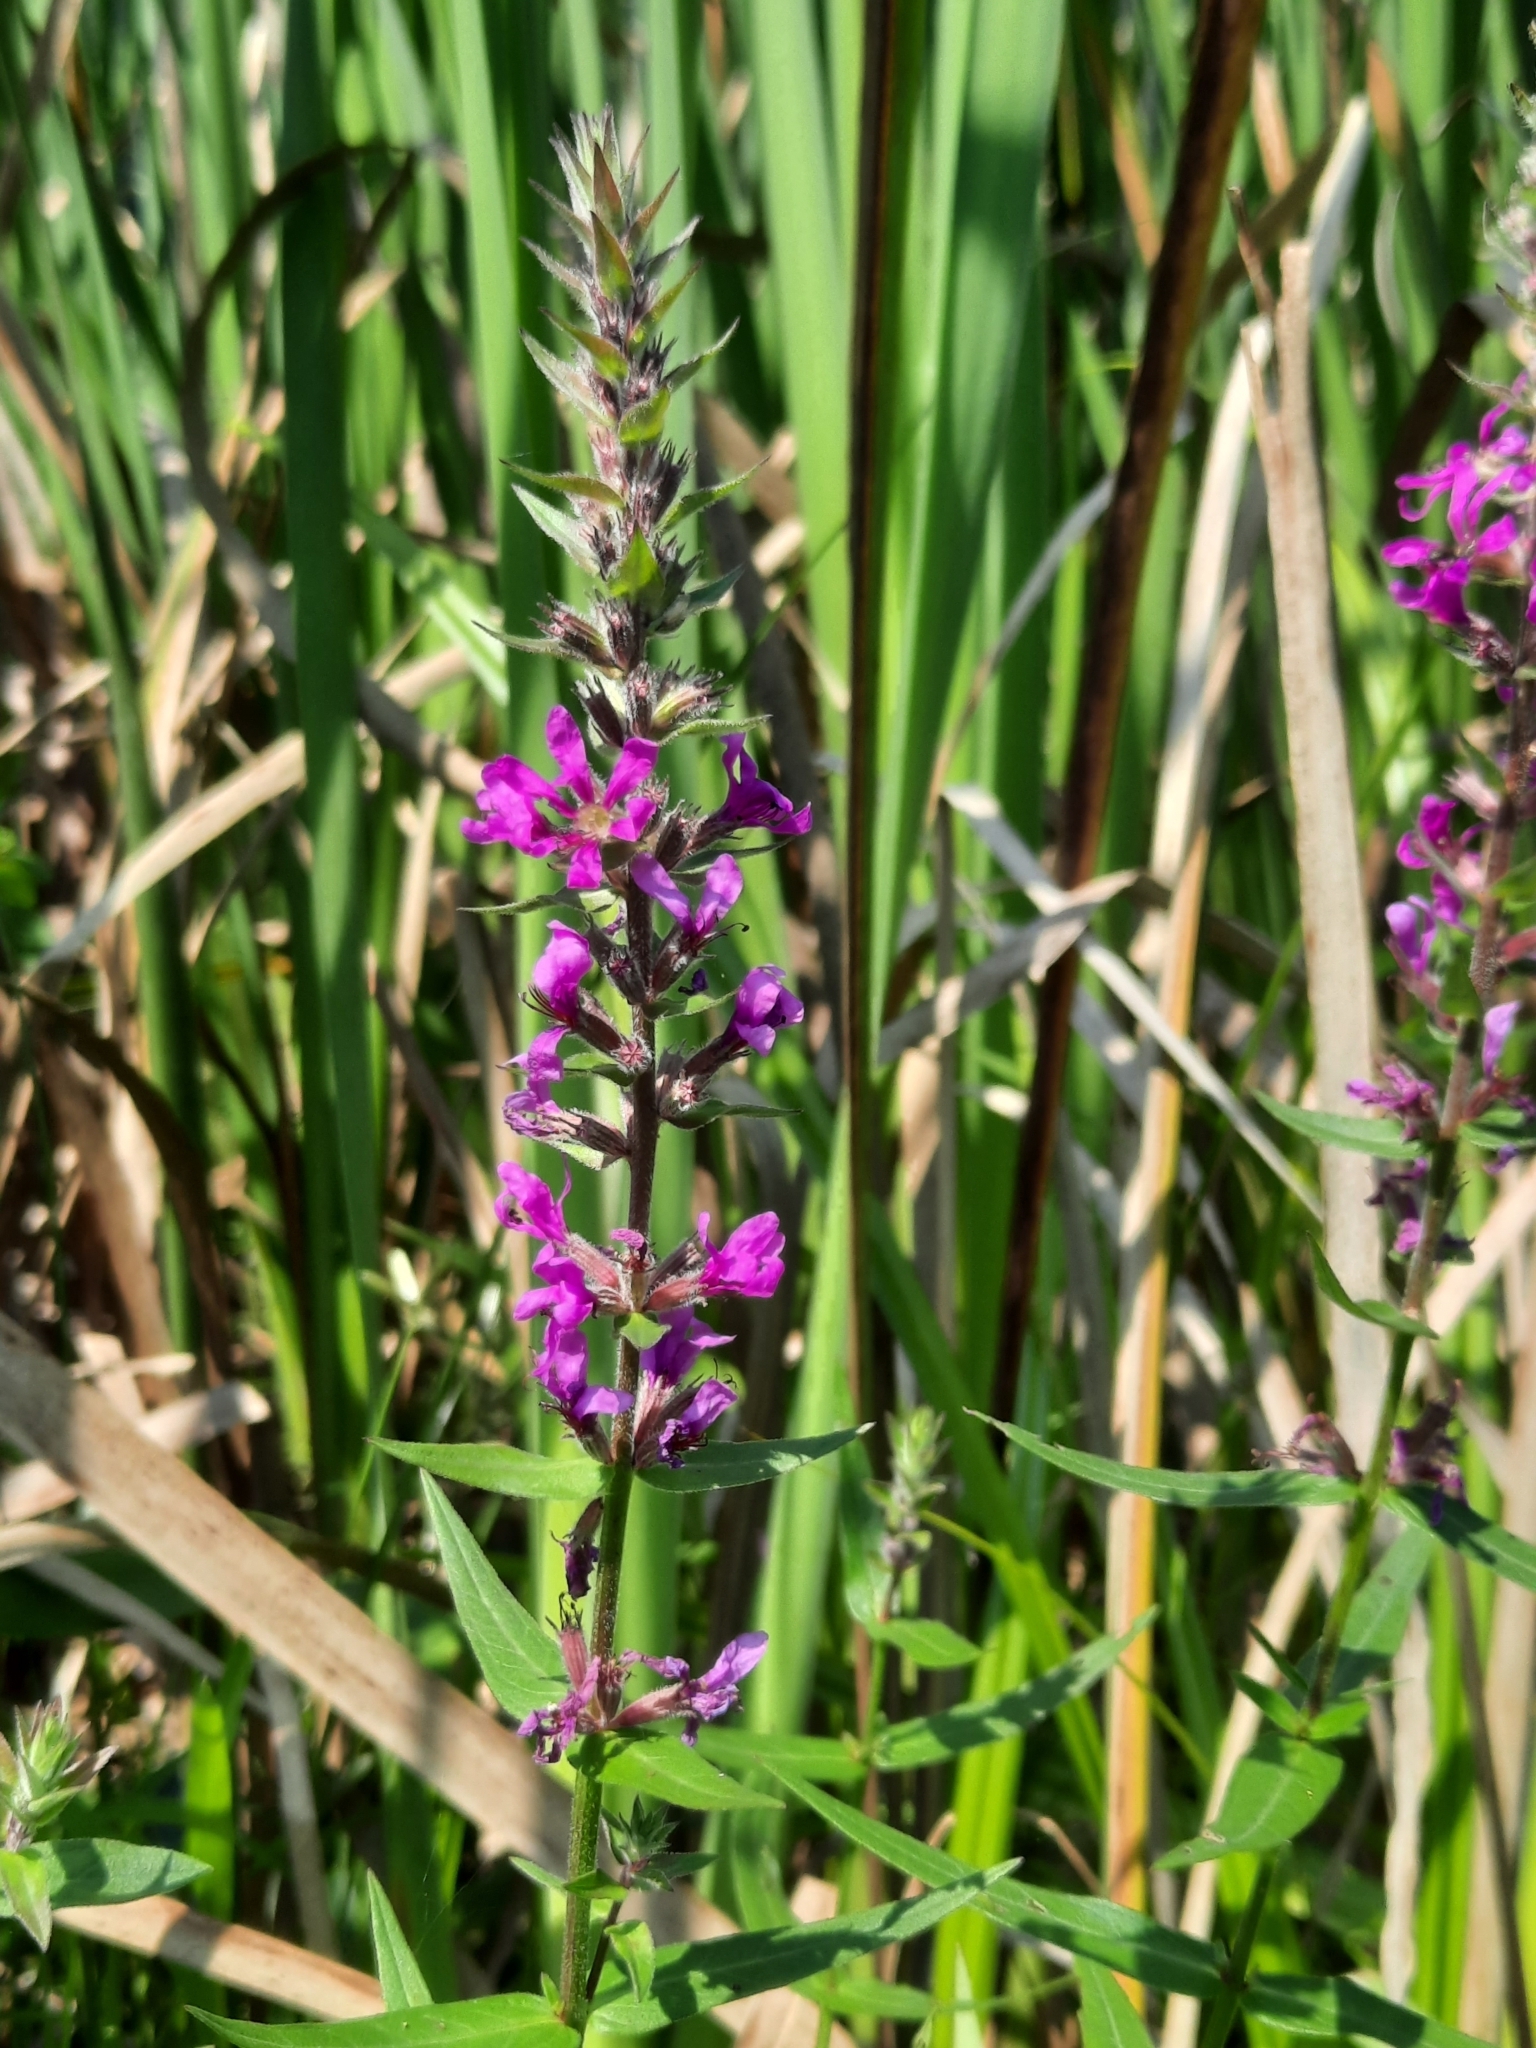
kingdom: Plantae
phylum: Tracheophyta
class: Magnoliopsida
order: Myrtales
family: Lythraceae
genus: Lythrum
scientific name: Lythrum salicaria
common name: Purple loosestrife
